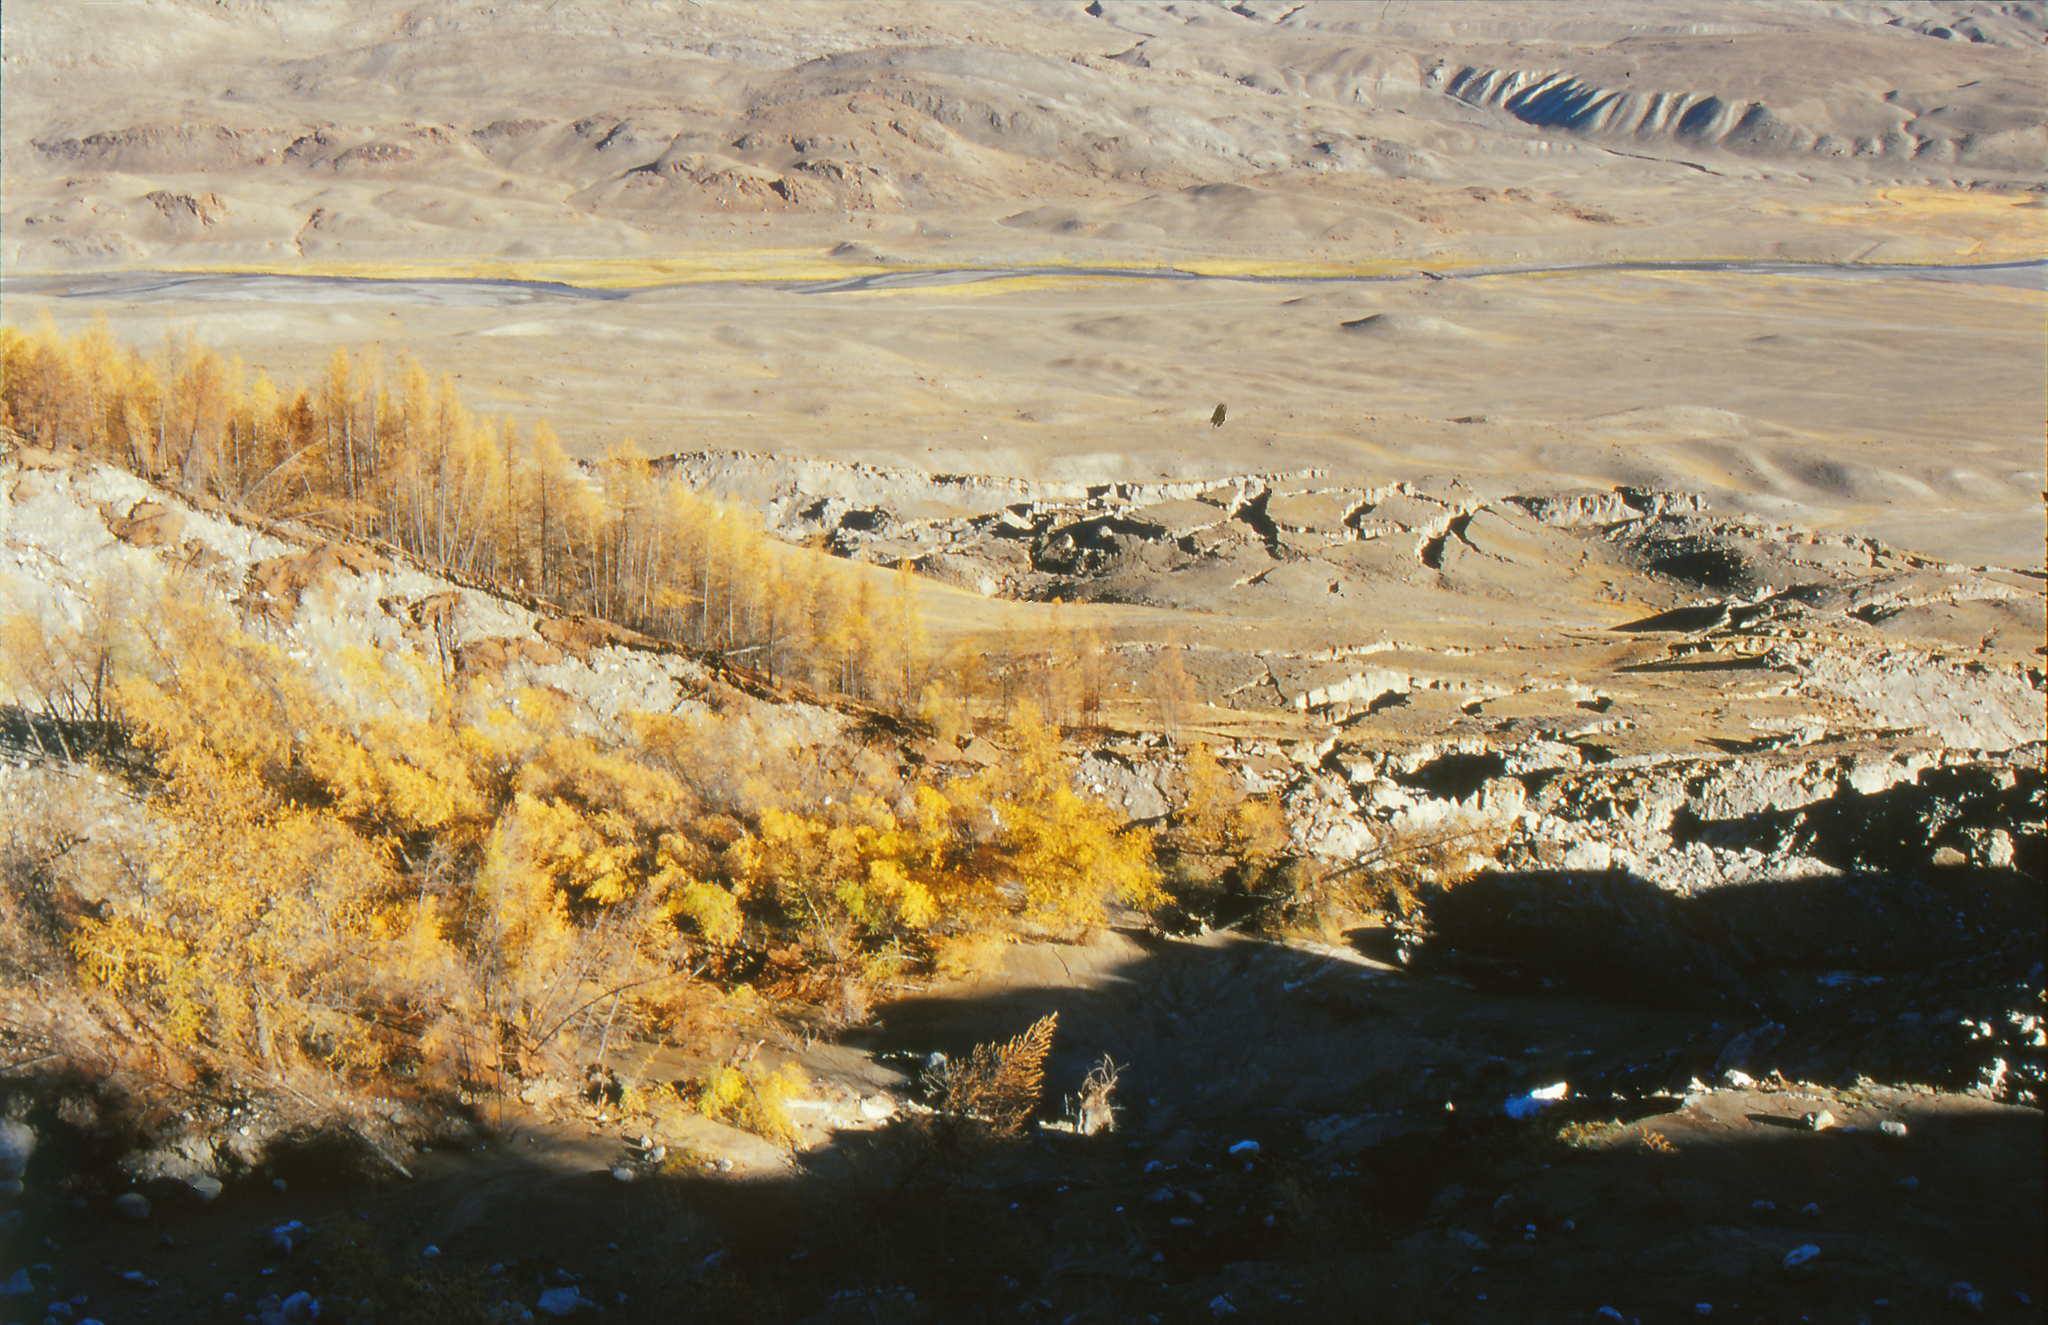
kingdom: Plantae
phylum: Tracheophyta
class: Pinopsida
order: Pinales
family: Pinaceae
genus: Larix
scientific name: Larix sibirica
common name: Siberian larch
